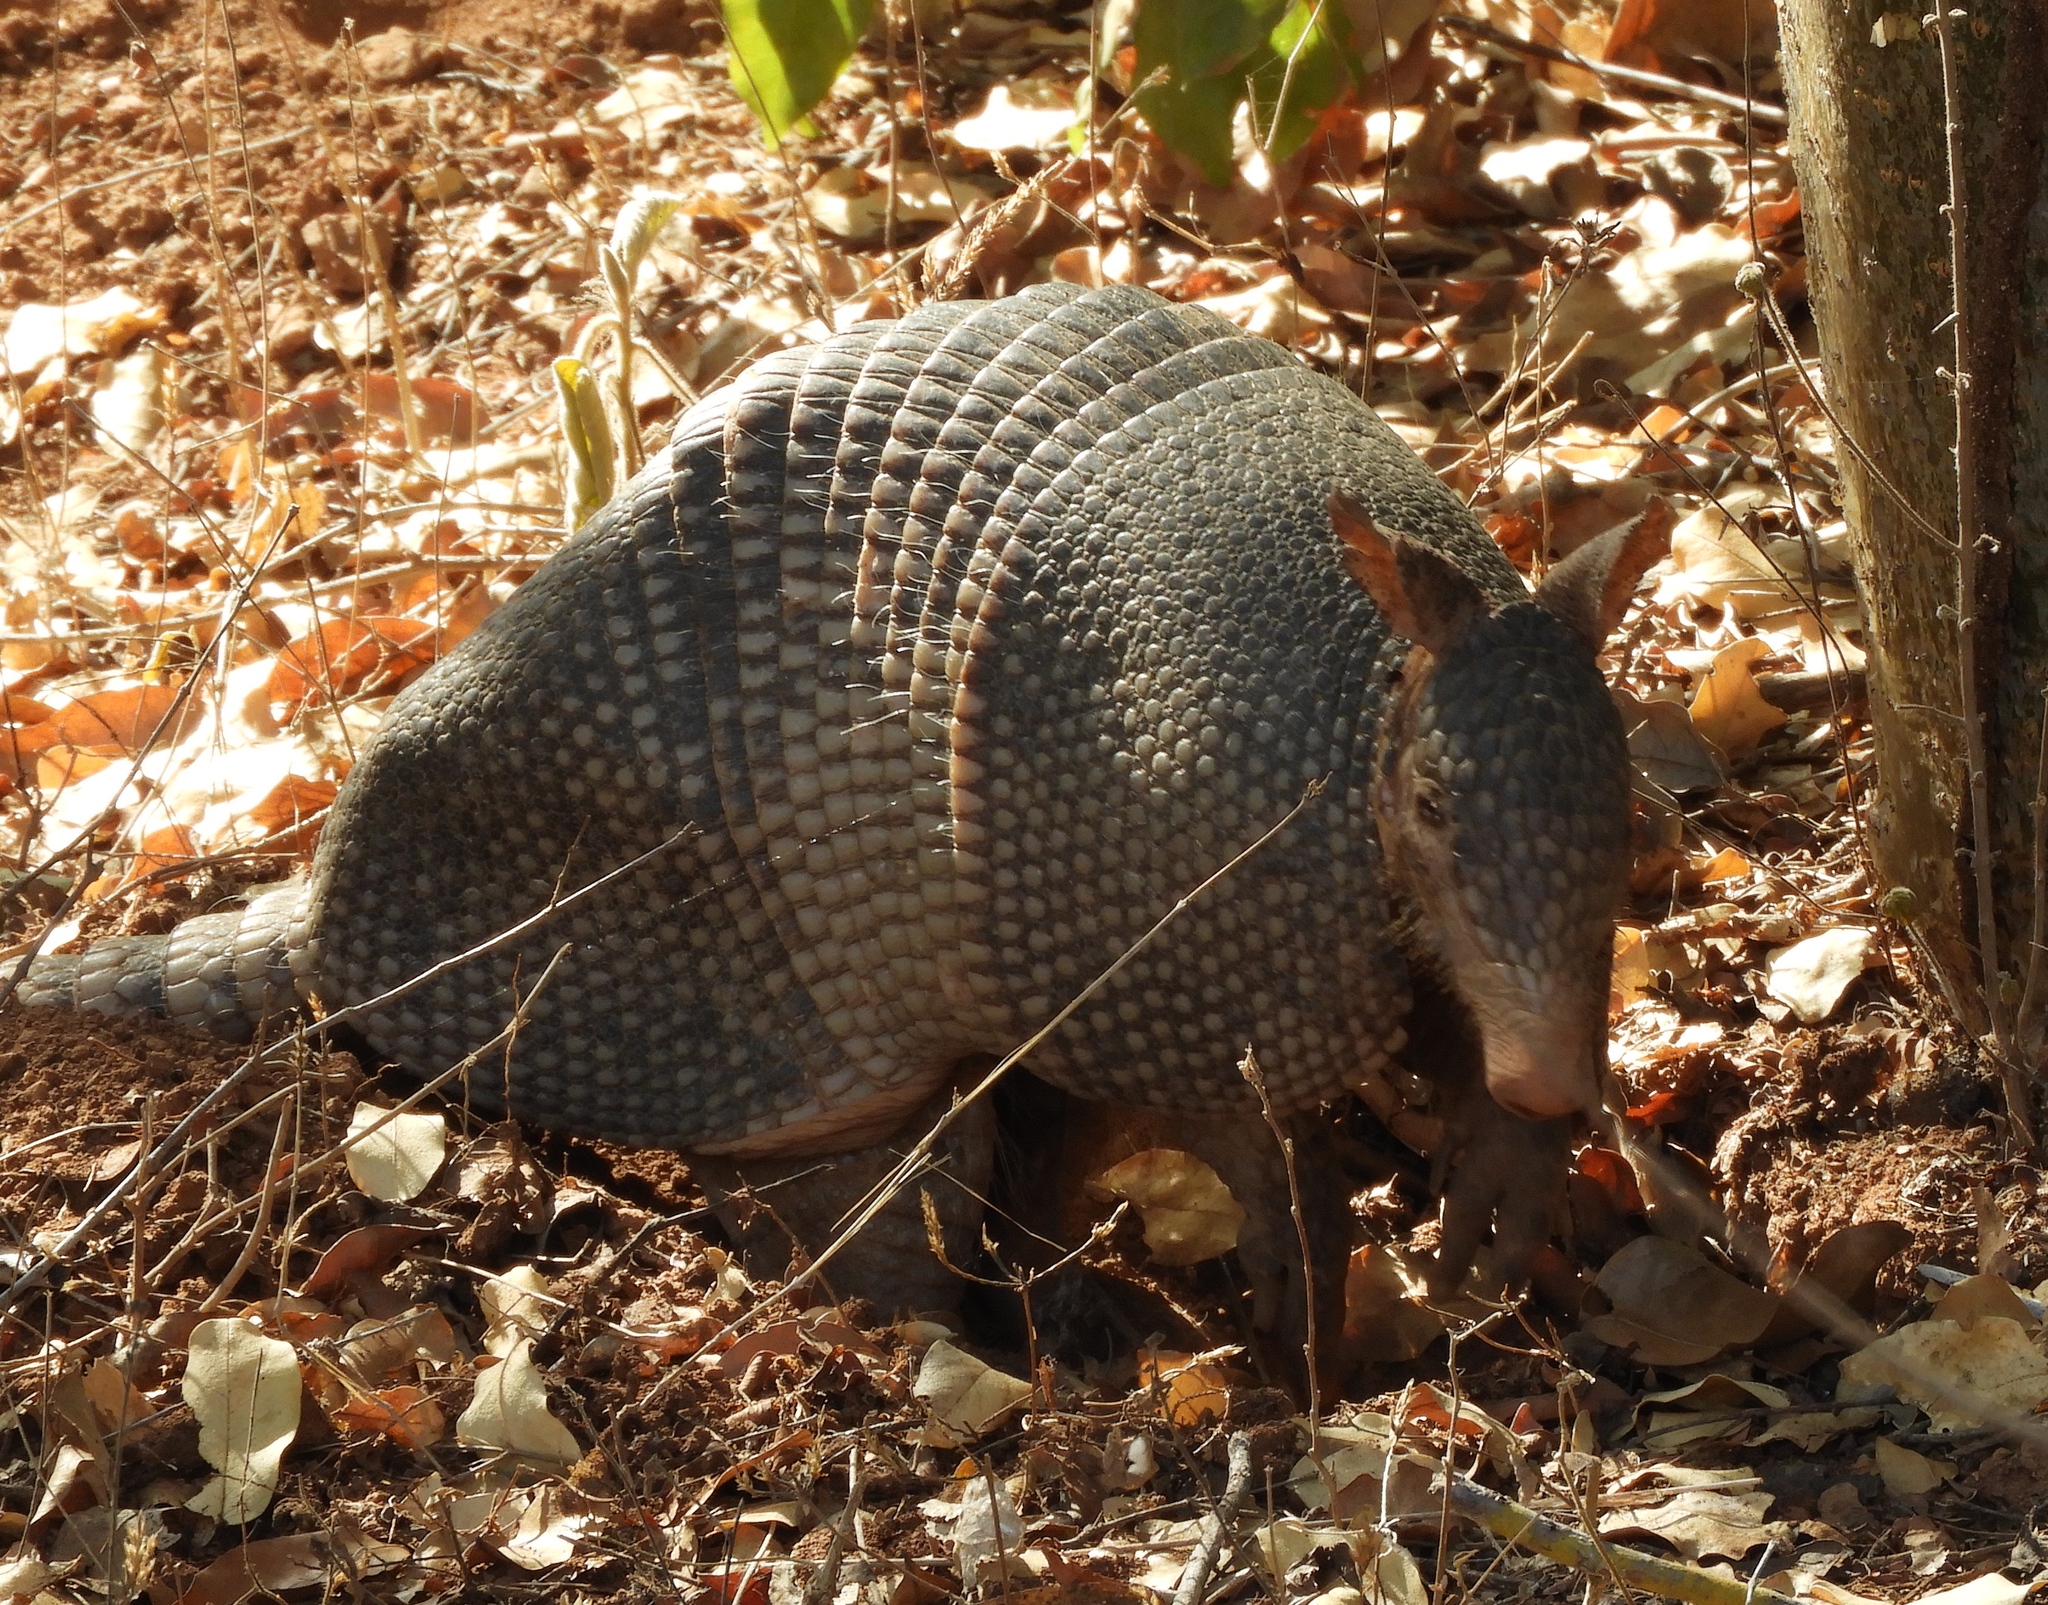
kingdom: Animalia
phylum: Chordata
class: Mammalia
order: Cingulata
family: Dasypodidae
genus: Dasypus
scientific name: Dasypus novemcinctus
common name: Nine-banded armadillo
